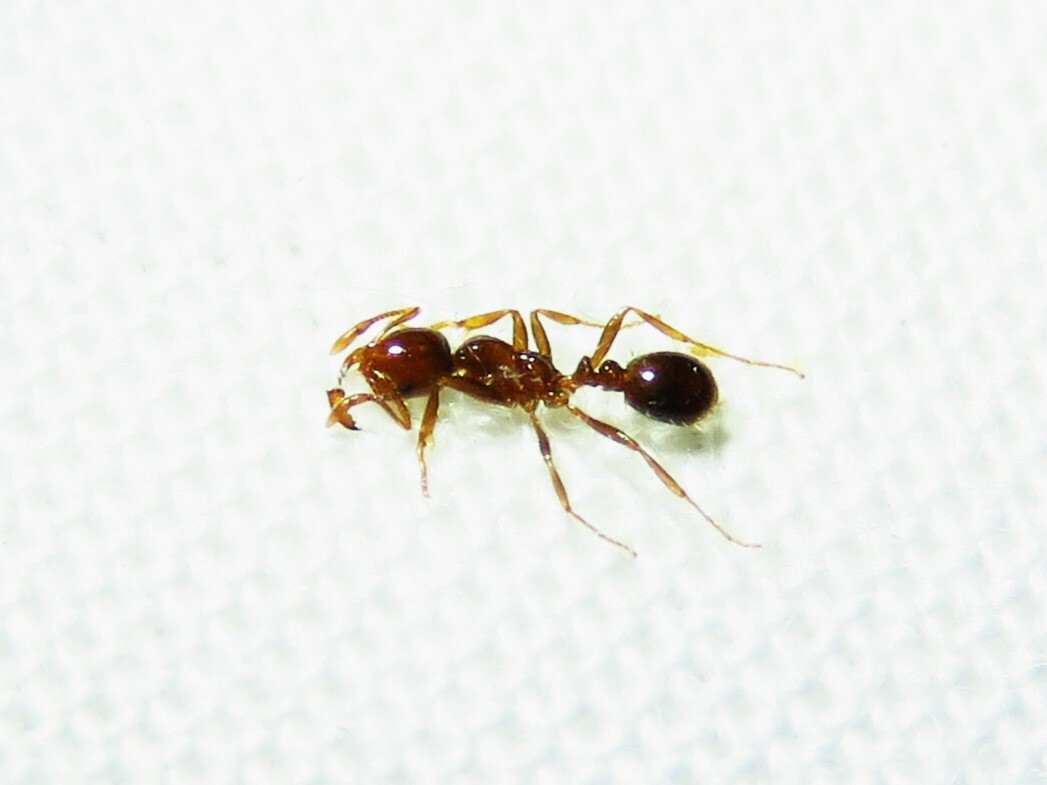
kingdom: Animalia
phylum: Arthropoda
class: Insecta
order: Hymenoptera
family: Formicidae
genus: Solenopsis
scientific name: Solenopsis invicta
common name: Red imported fire ant
